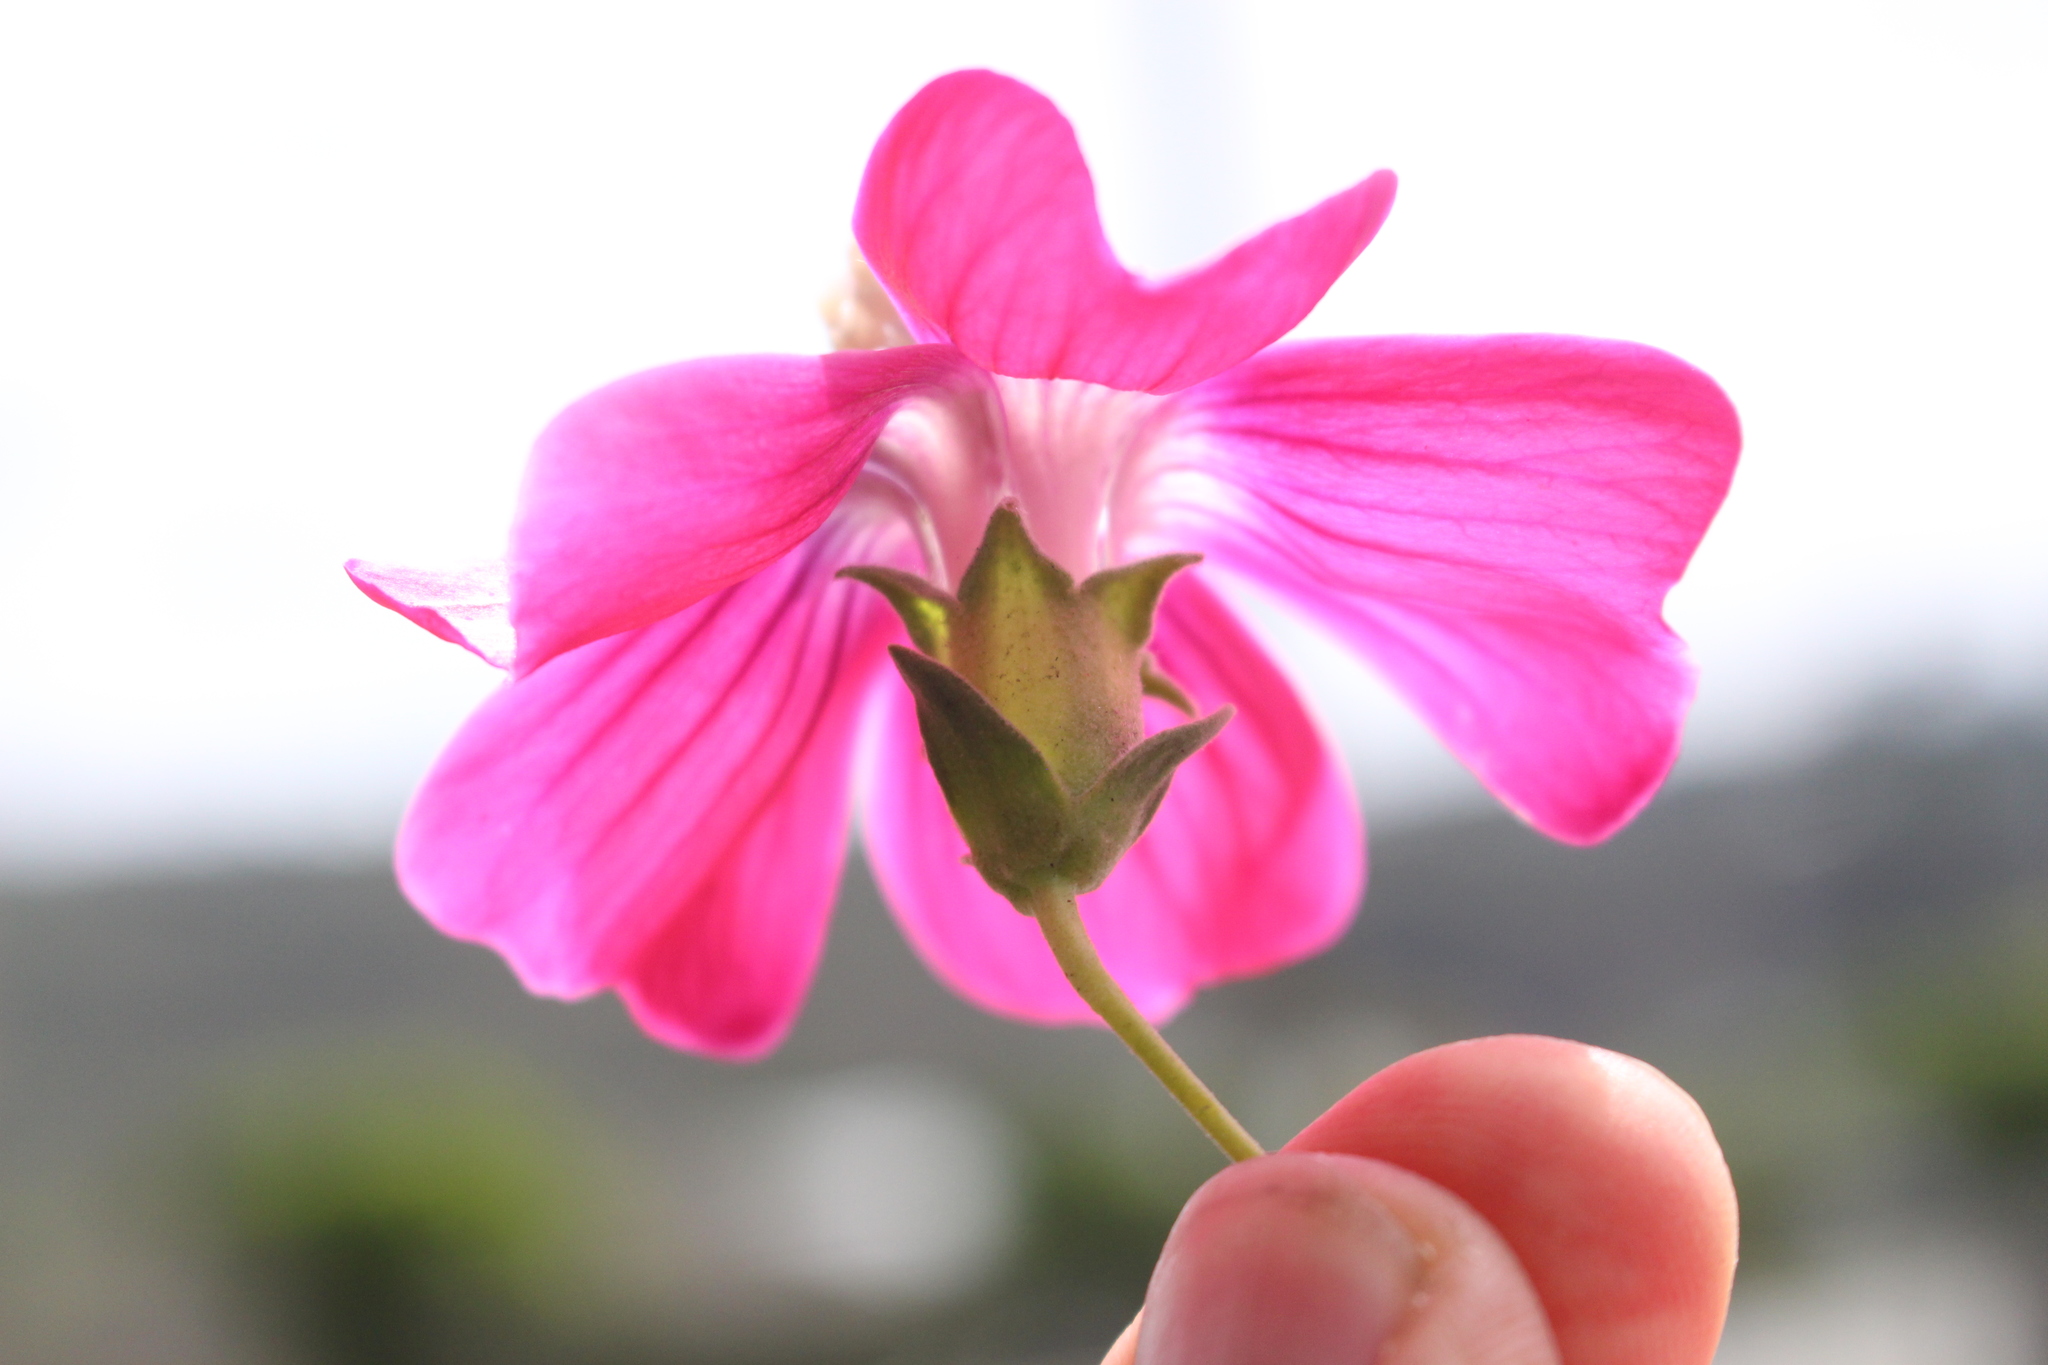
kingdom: Plantae
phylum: Tracheophyta
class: Magnoliopsida
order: Malvales
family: Malvaceae
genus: Malva
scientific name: Malva assurgentiflora
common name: Island mallow
